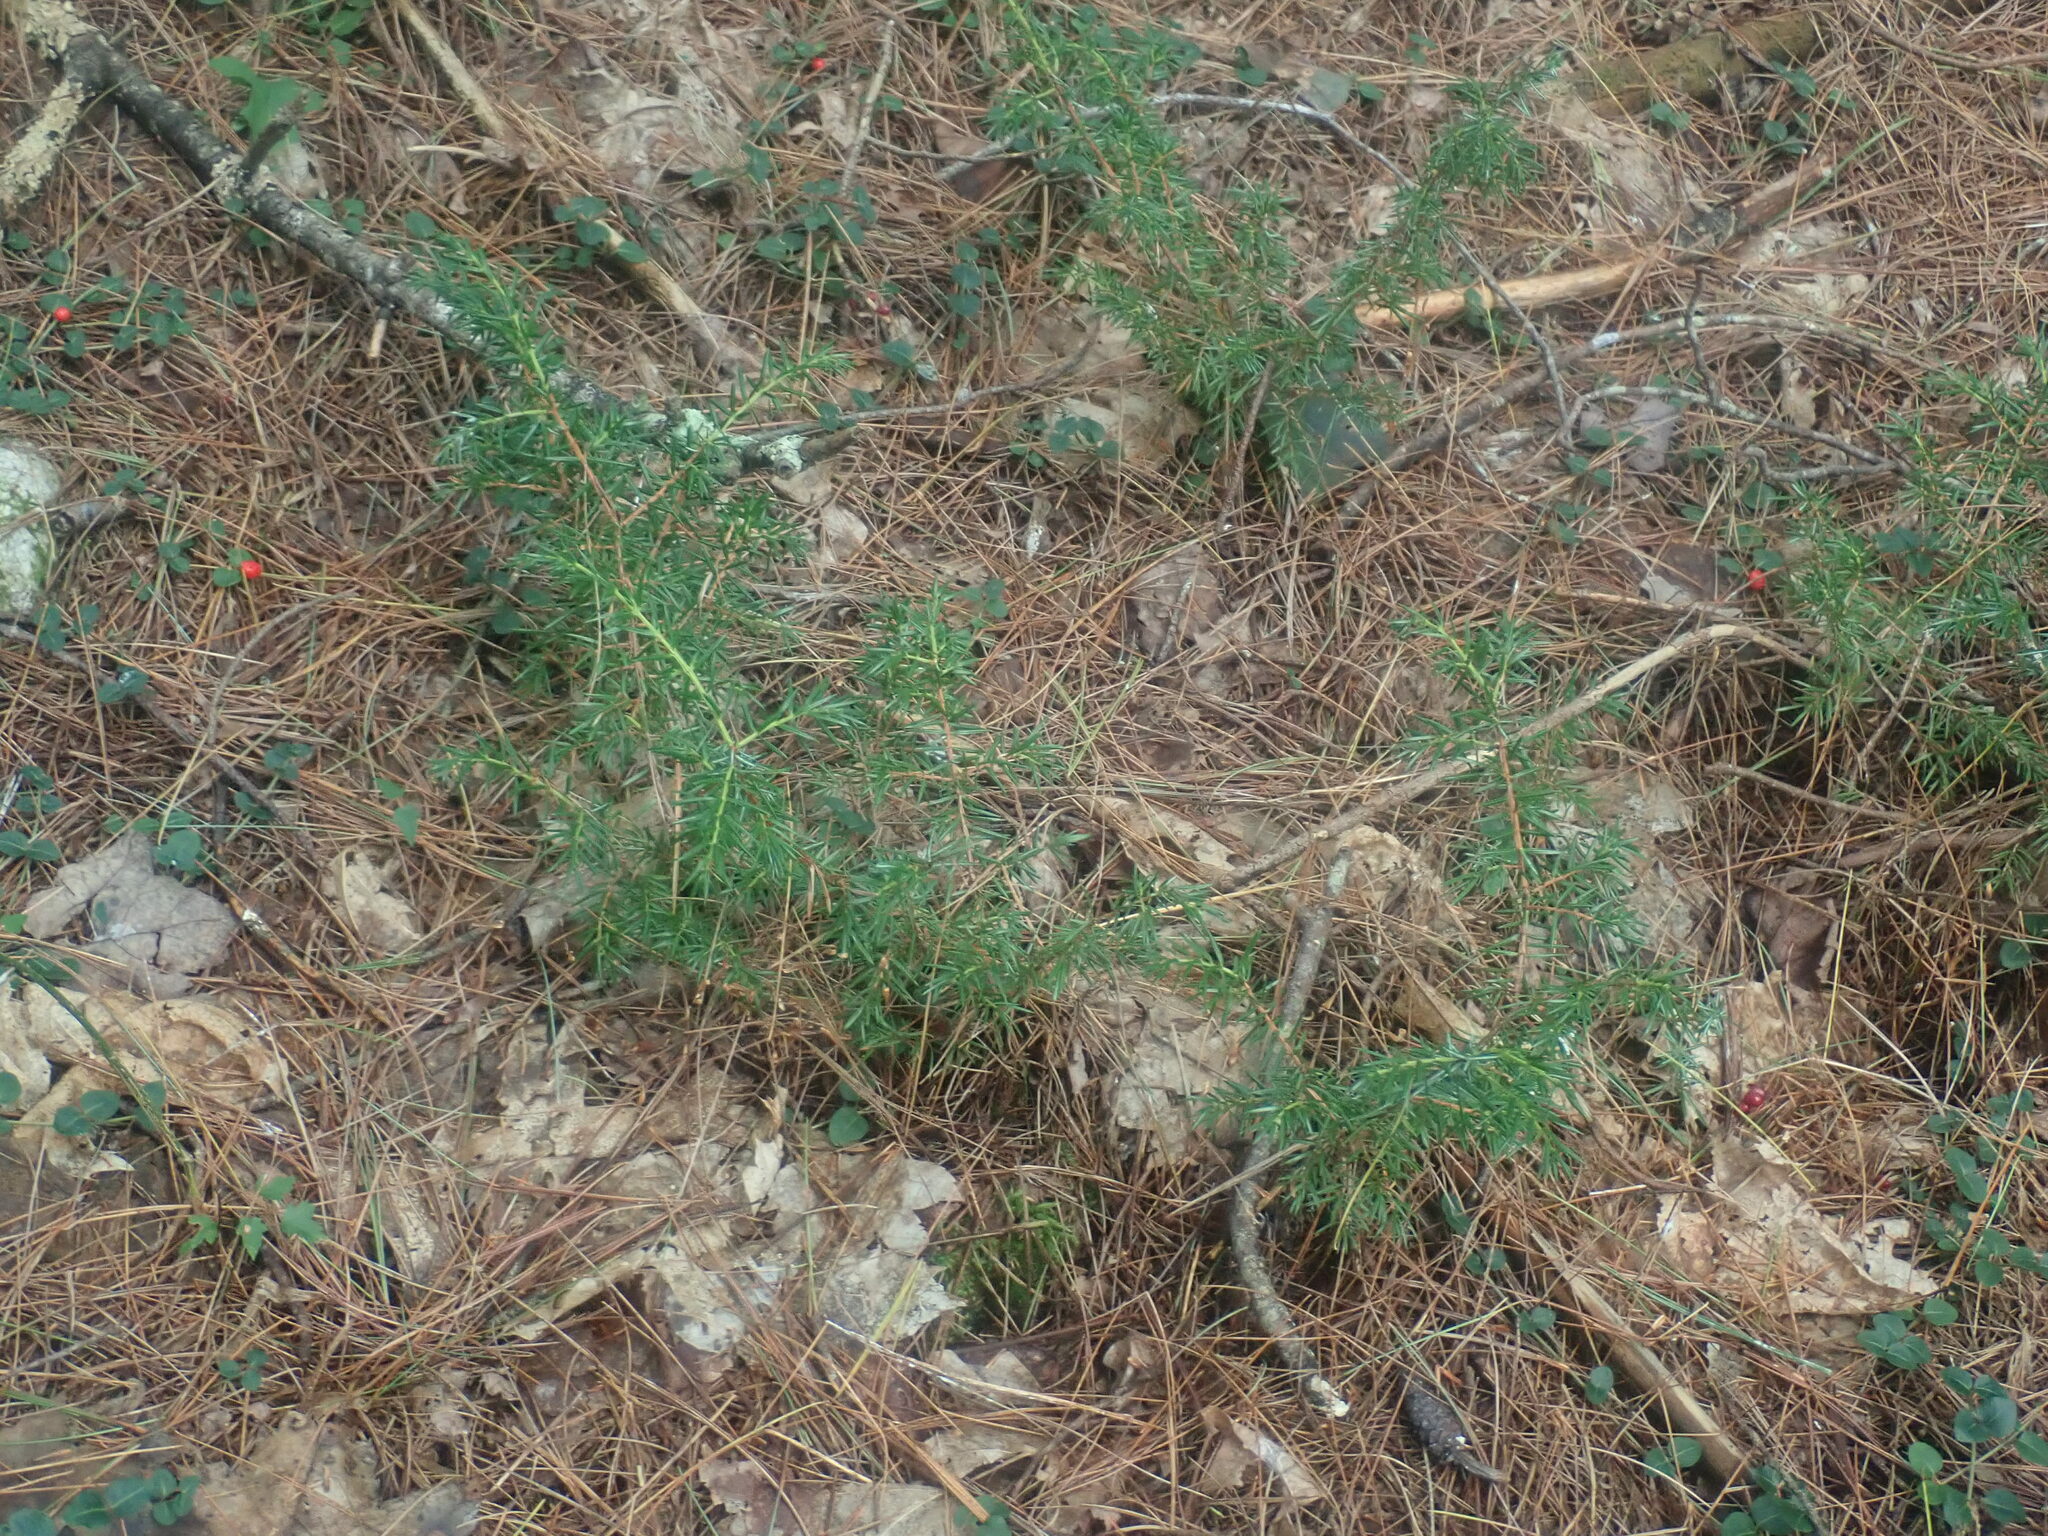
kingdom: Plantae
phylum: Tracheophyta
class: Pinopsida
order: Pinales
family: Cupressaceae
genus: Juniperus
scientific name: Juniperus communis
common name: Common juniper
